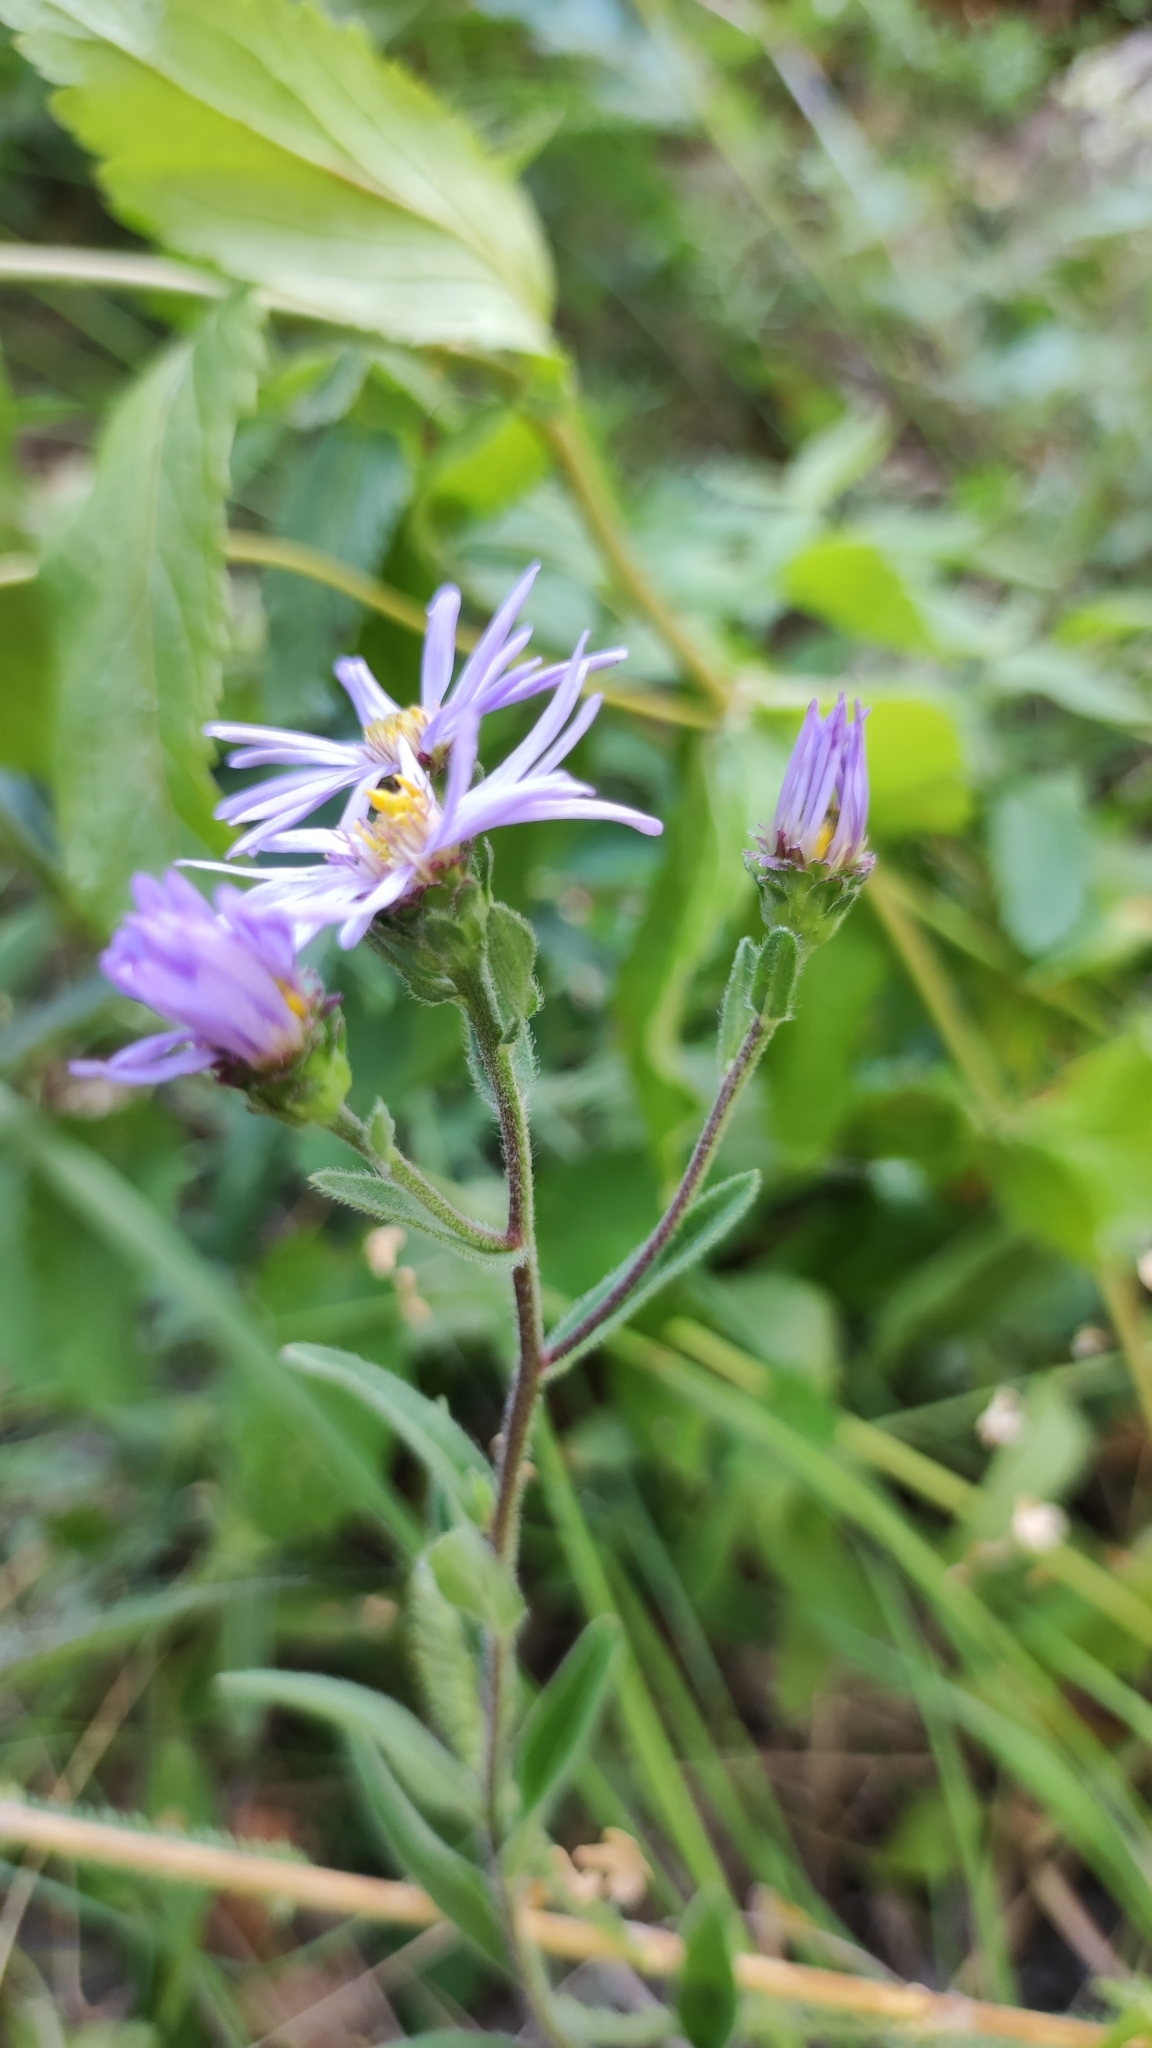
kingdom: Plantae
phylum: Tracheophyta
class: Magnoliopsida
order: Asterales
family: Asteraceae
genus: Aster
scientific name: Aster amellus
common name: European michaelmas daisy
